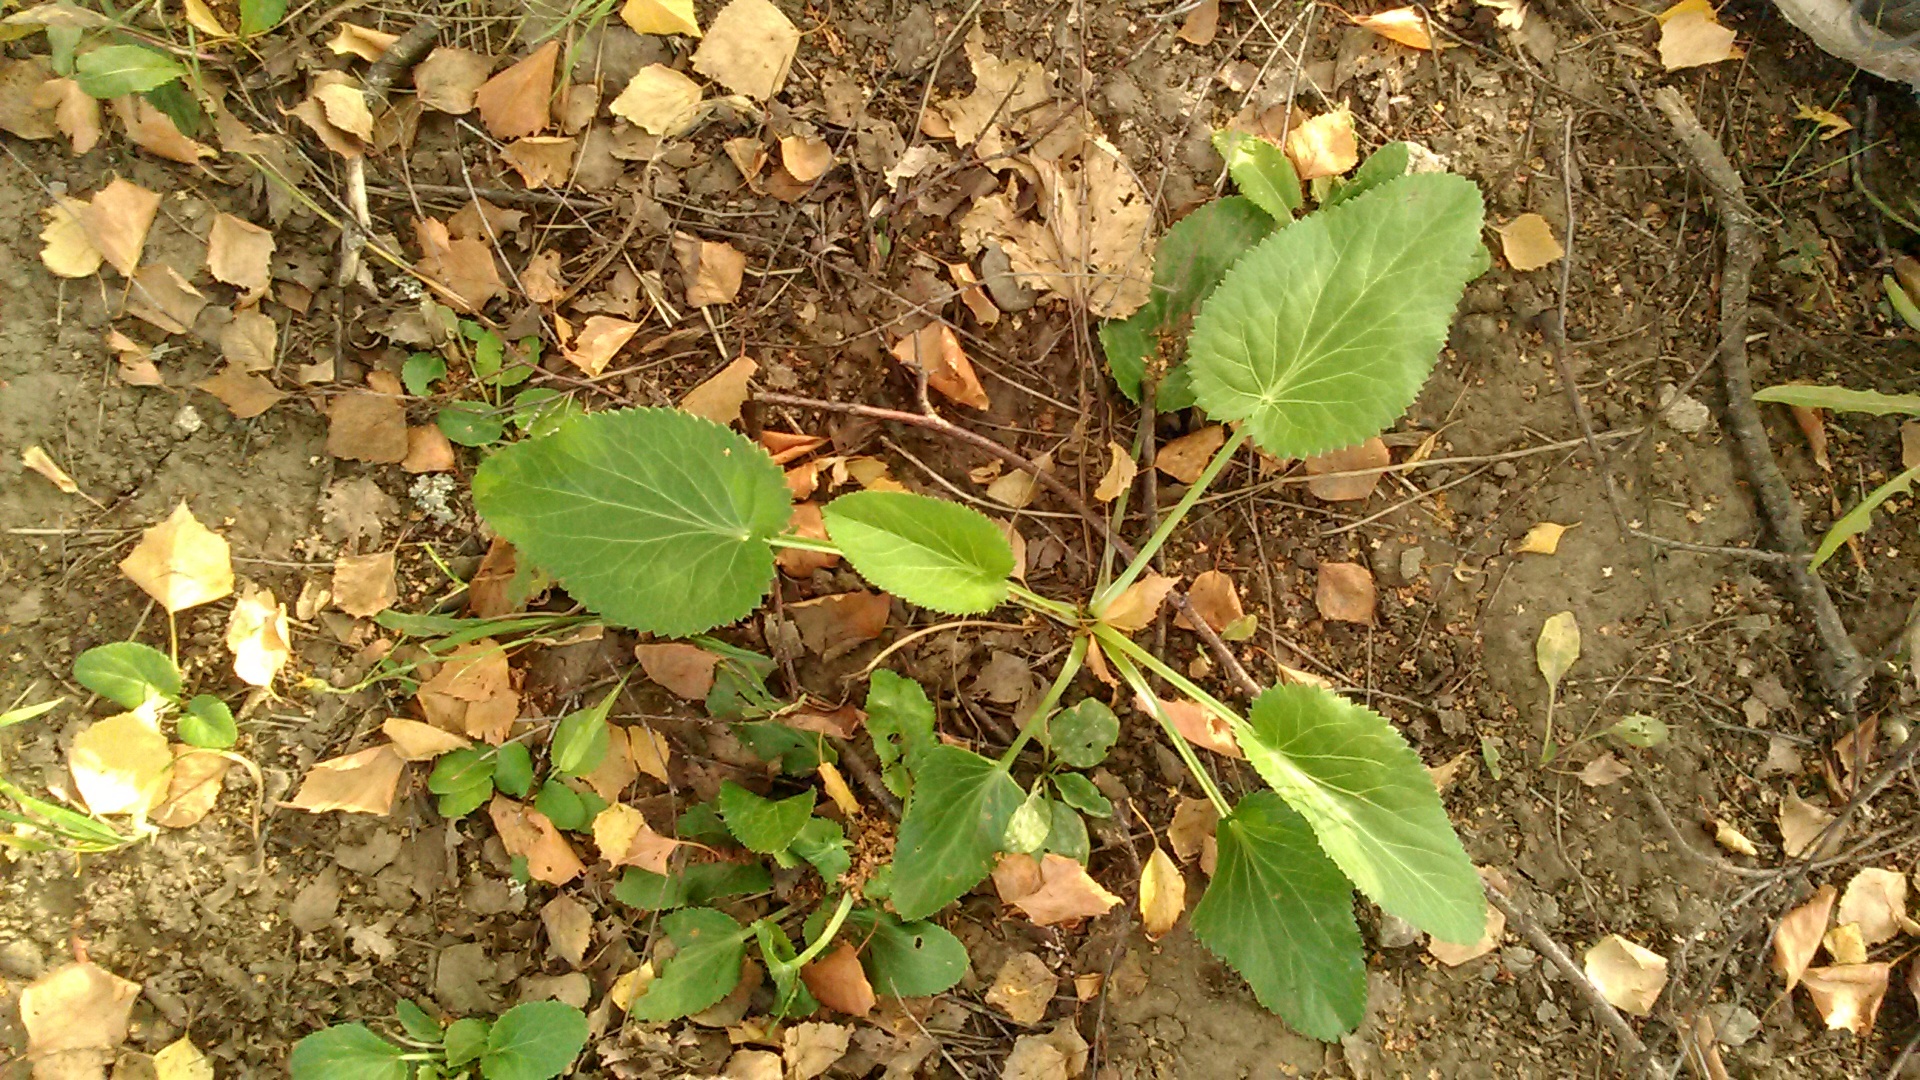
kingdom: Plantae
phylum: Tracheophyta
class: Magnoliopsida
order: Apiales
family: Apiaceae
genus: Eryngium
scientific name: Eryngium planum
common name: Blue eryngo
